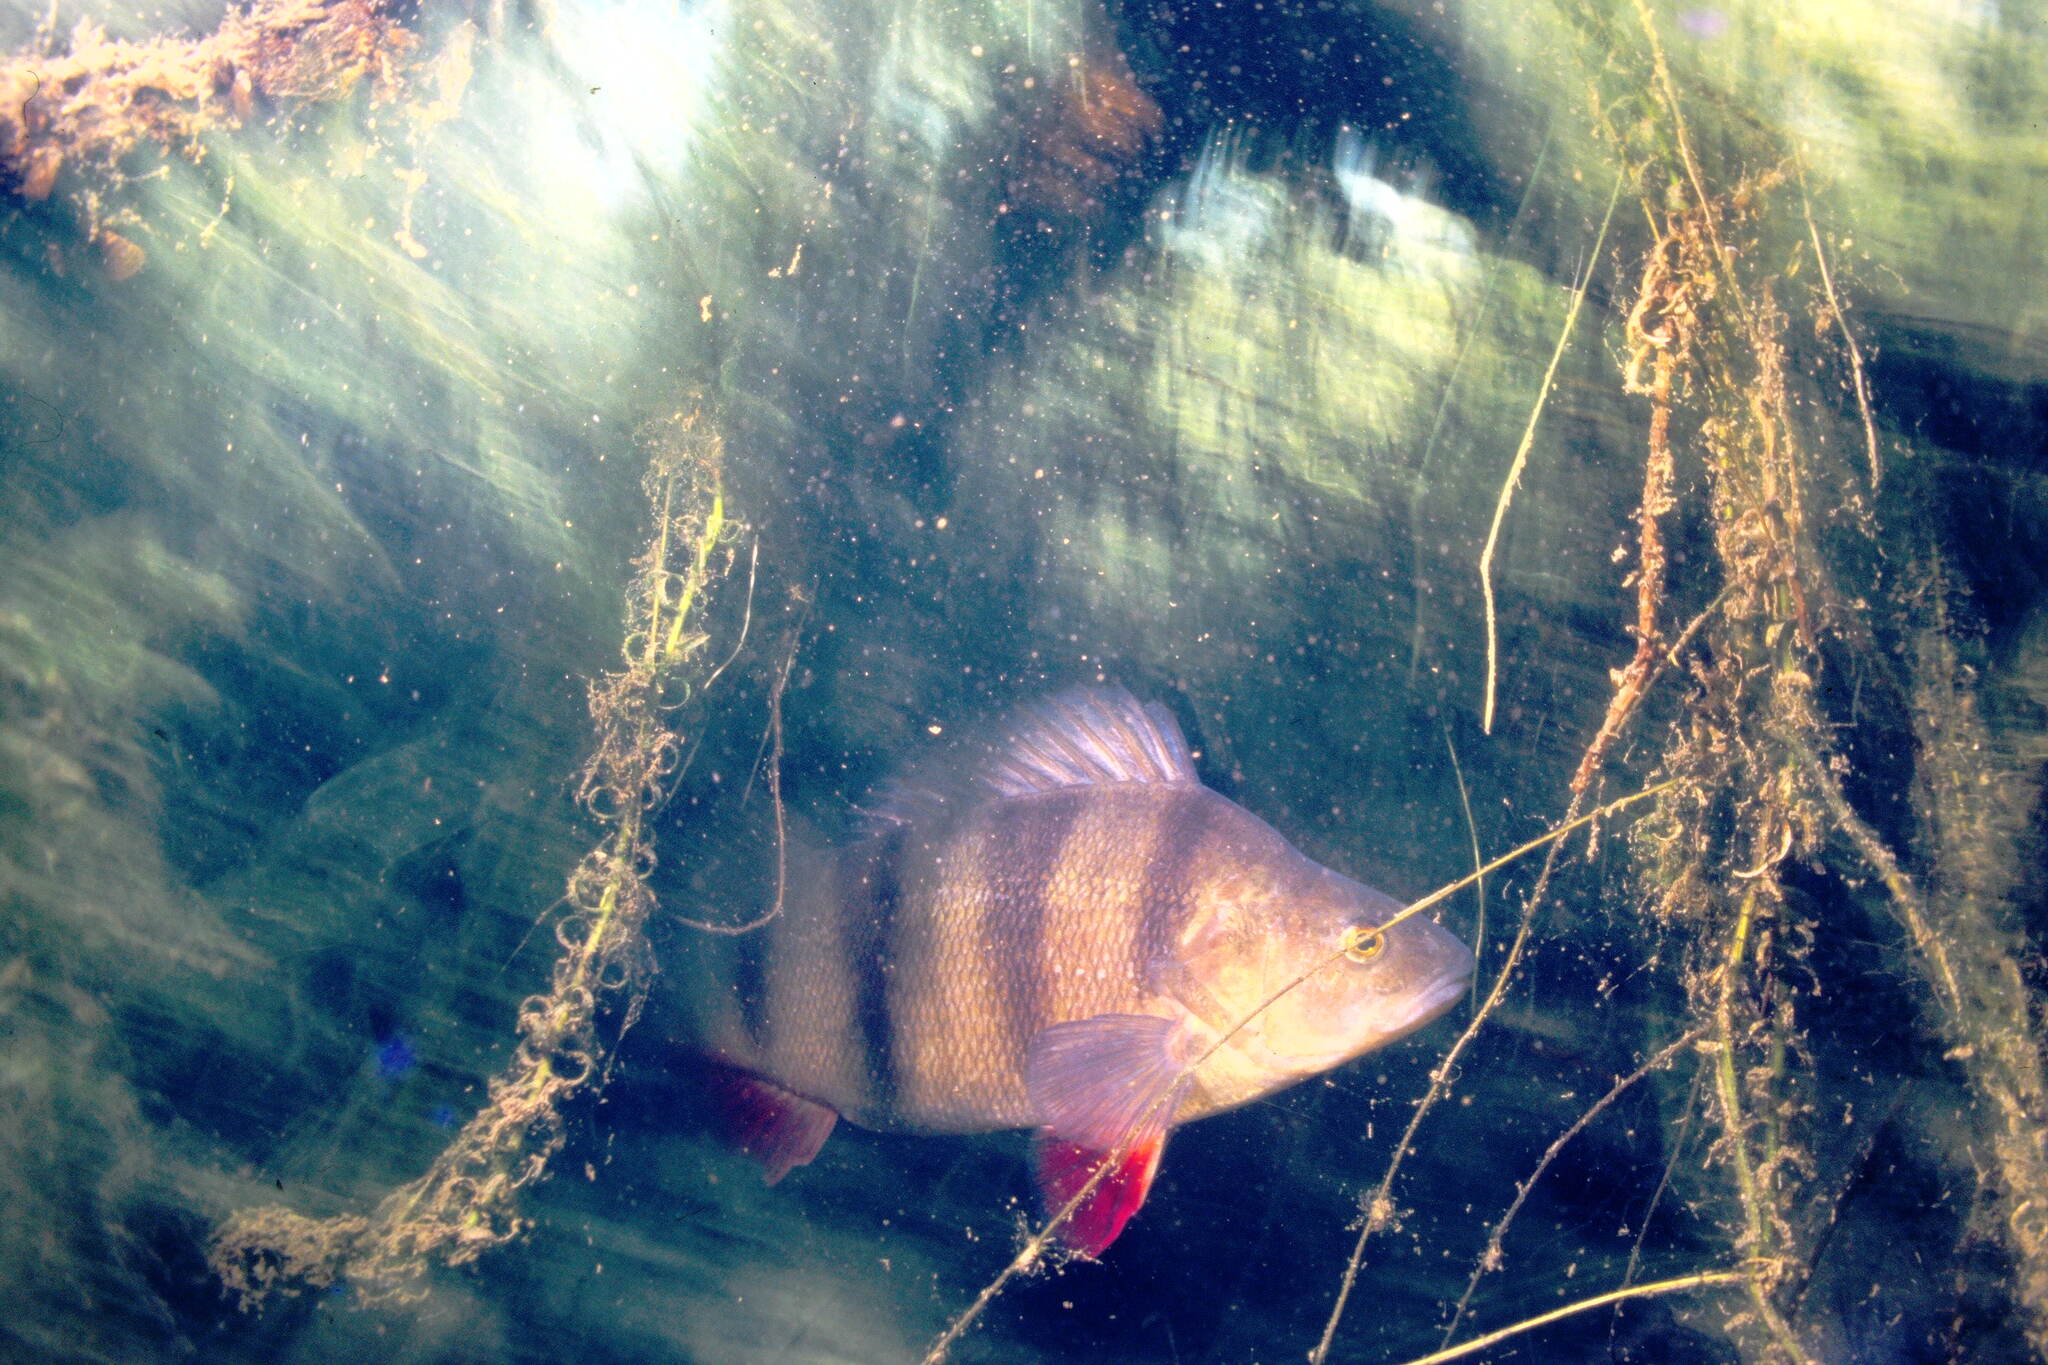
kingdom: Animalia
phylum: Chordata
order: Perciformes
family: Percidae
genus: Perca
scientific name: Perca fluviatilis
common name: Perch
